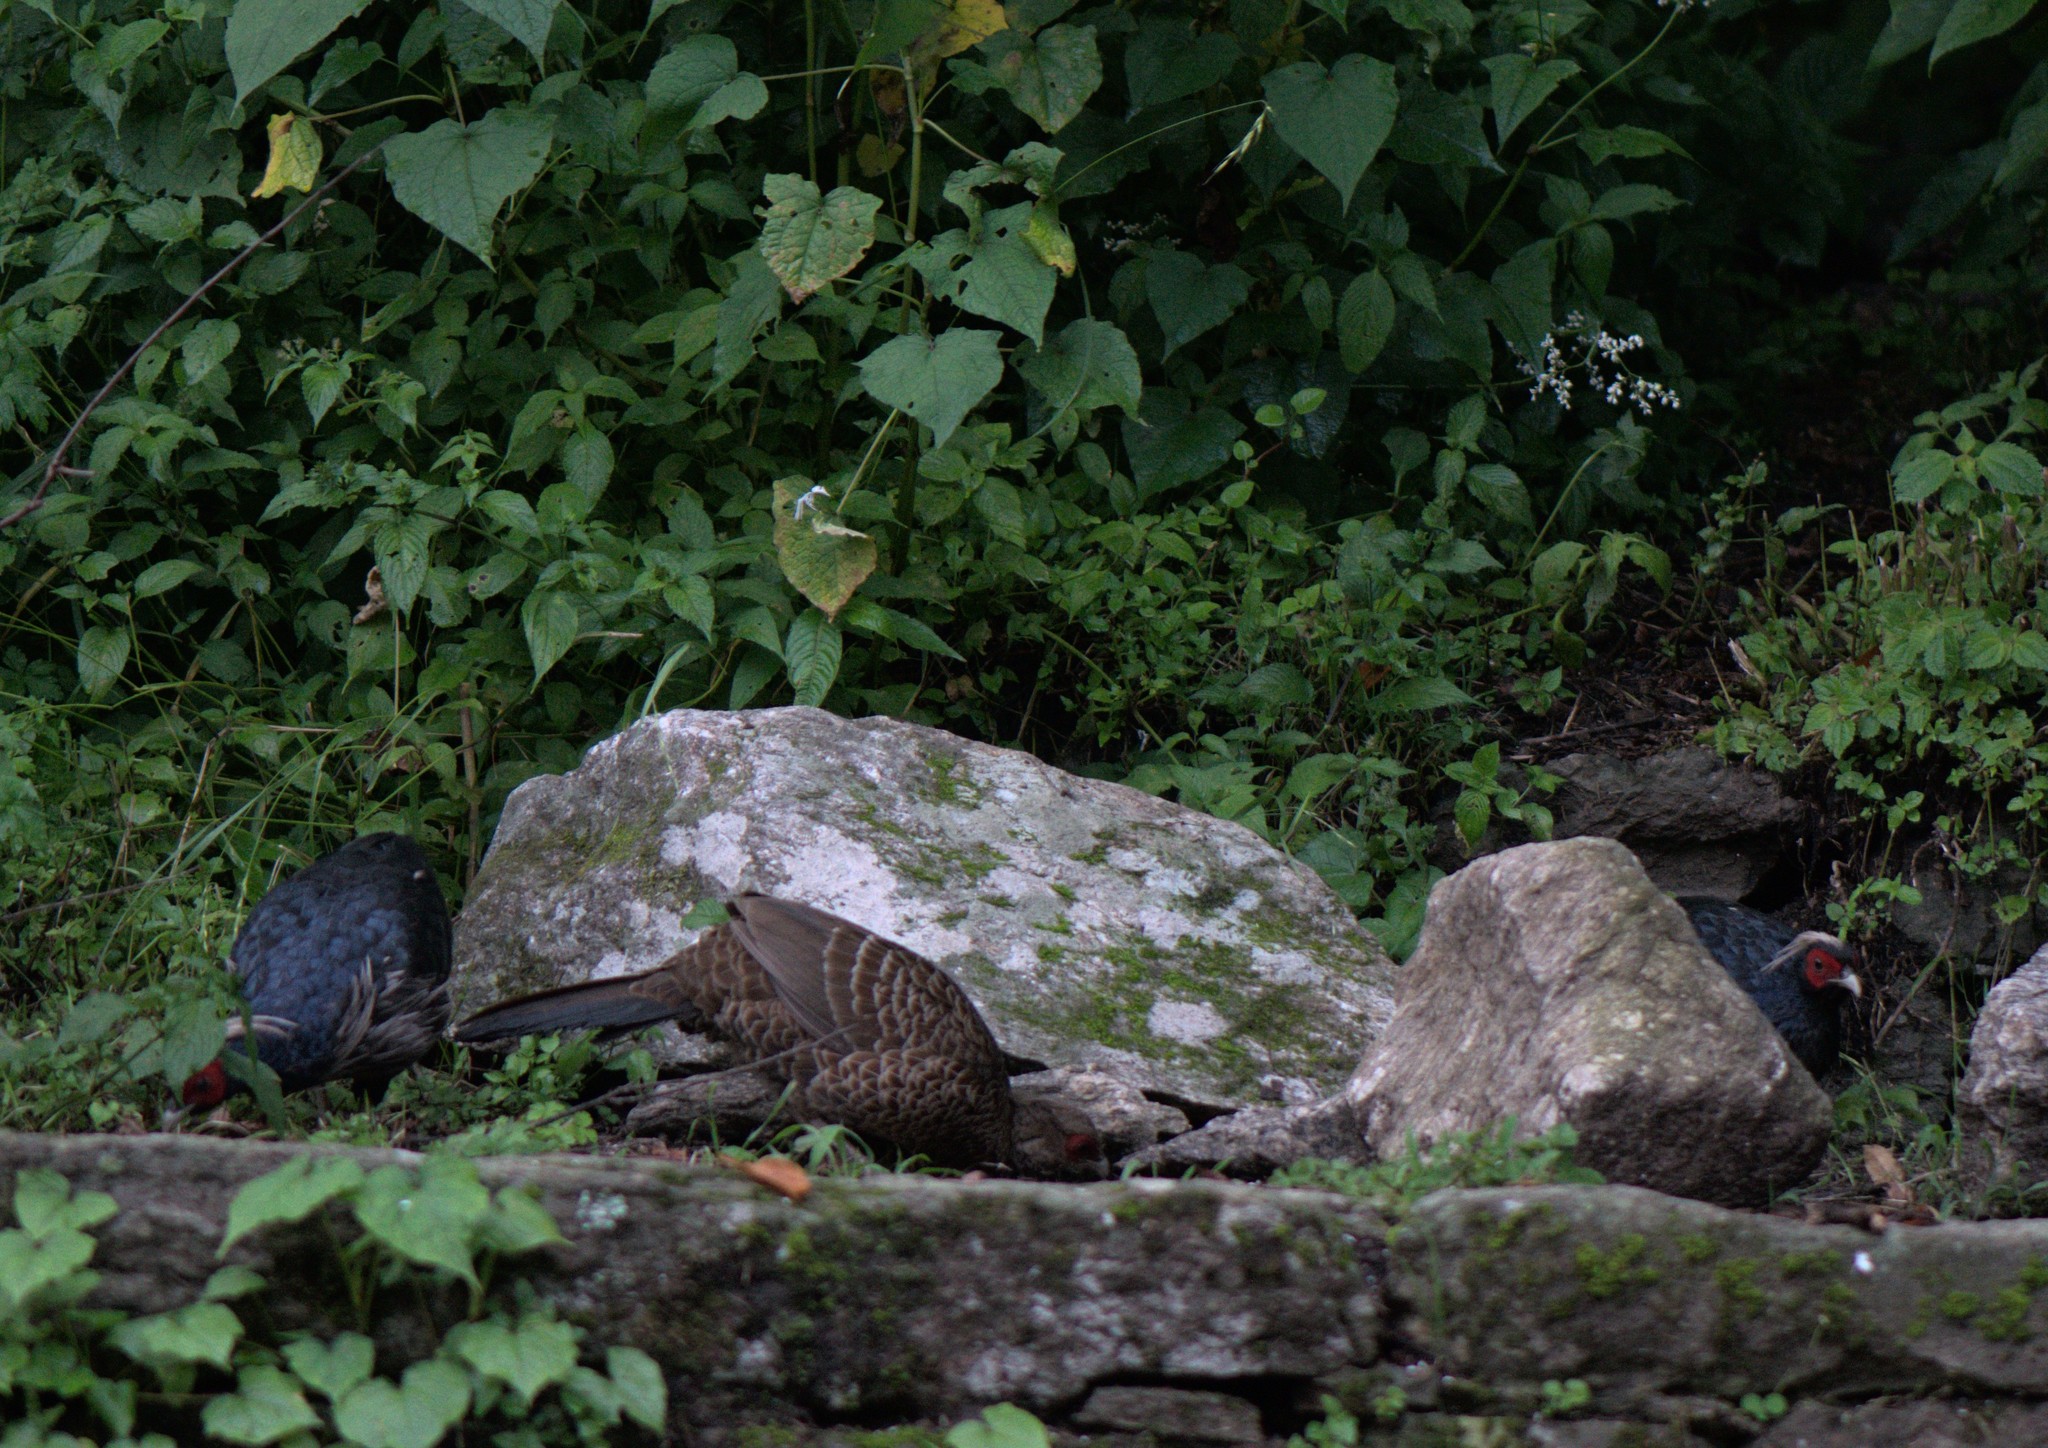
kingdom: Animalia
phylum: Chordata
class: Aves
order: Galliformes
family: Phasianidae
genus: Lophura
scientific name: Lophura leucomelanos
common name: Kalij pheasant
